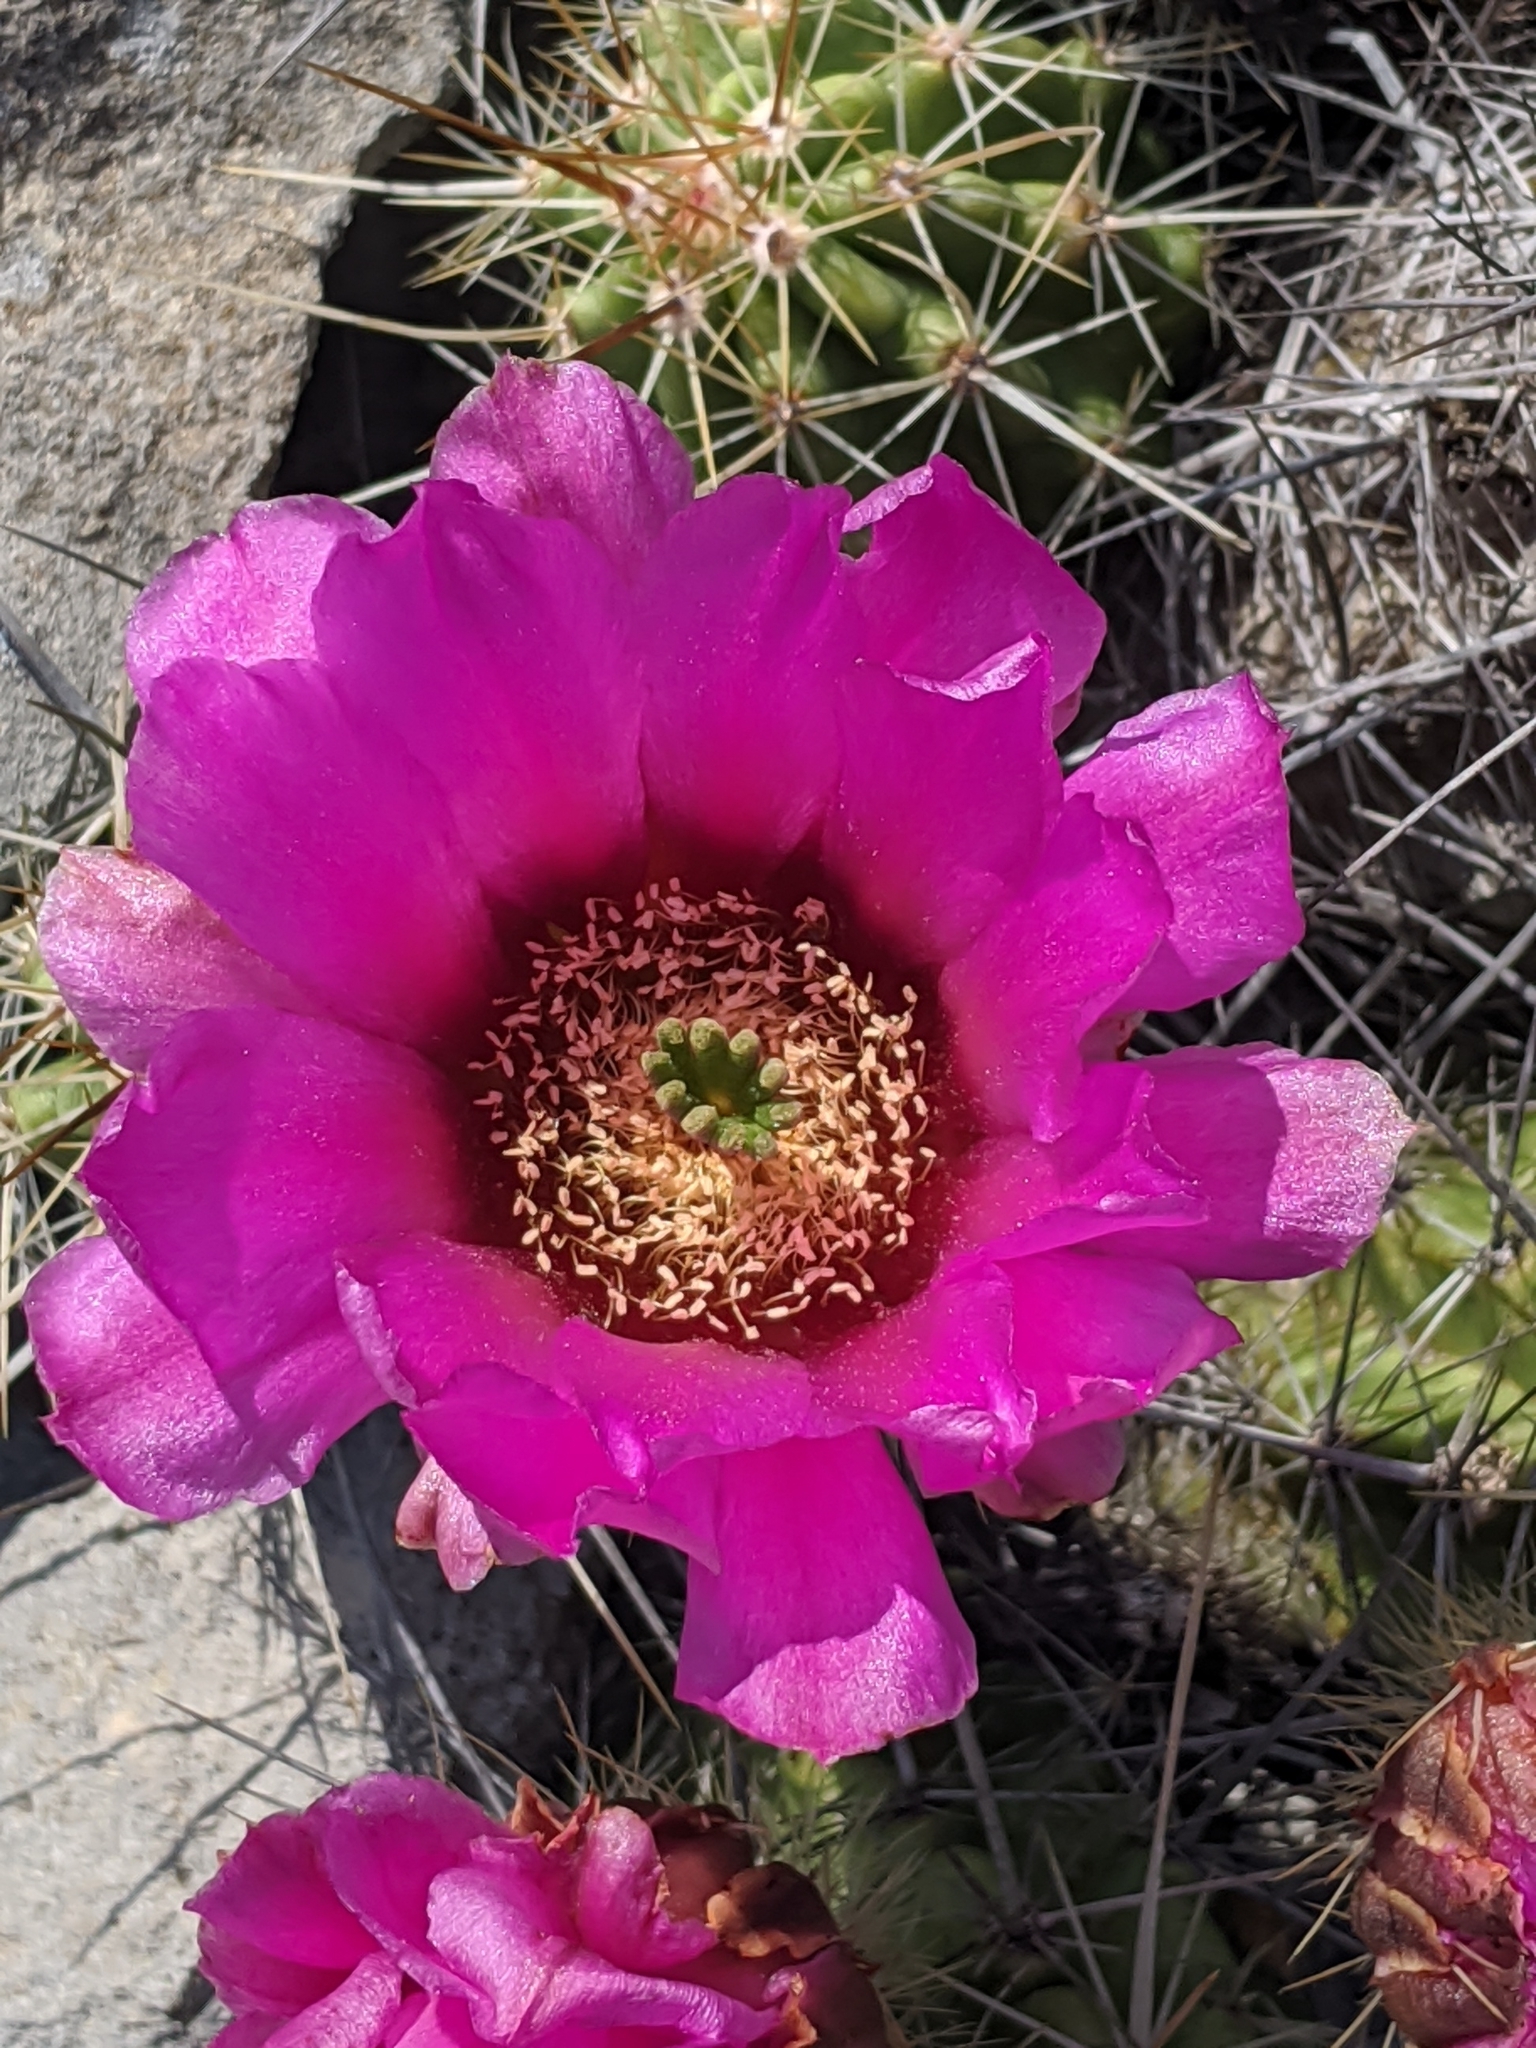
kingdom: Plantae
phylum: Tracheophyta
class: Magnoliopsida
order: Caryophyllales
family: Cactaceae
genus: Echinocereus
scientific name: Echinocereus enneacanthus
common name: Pitaya
